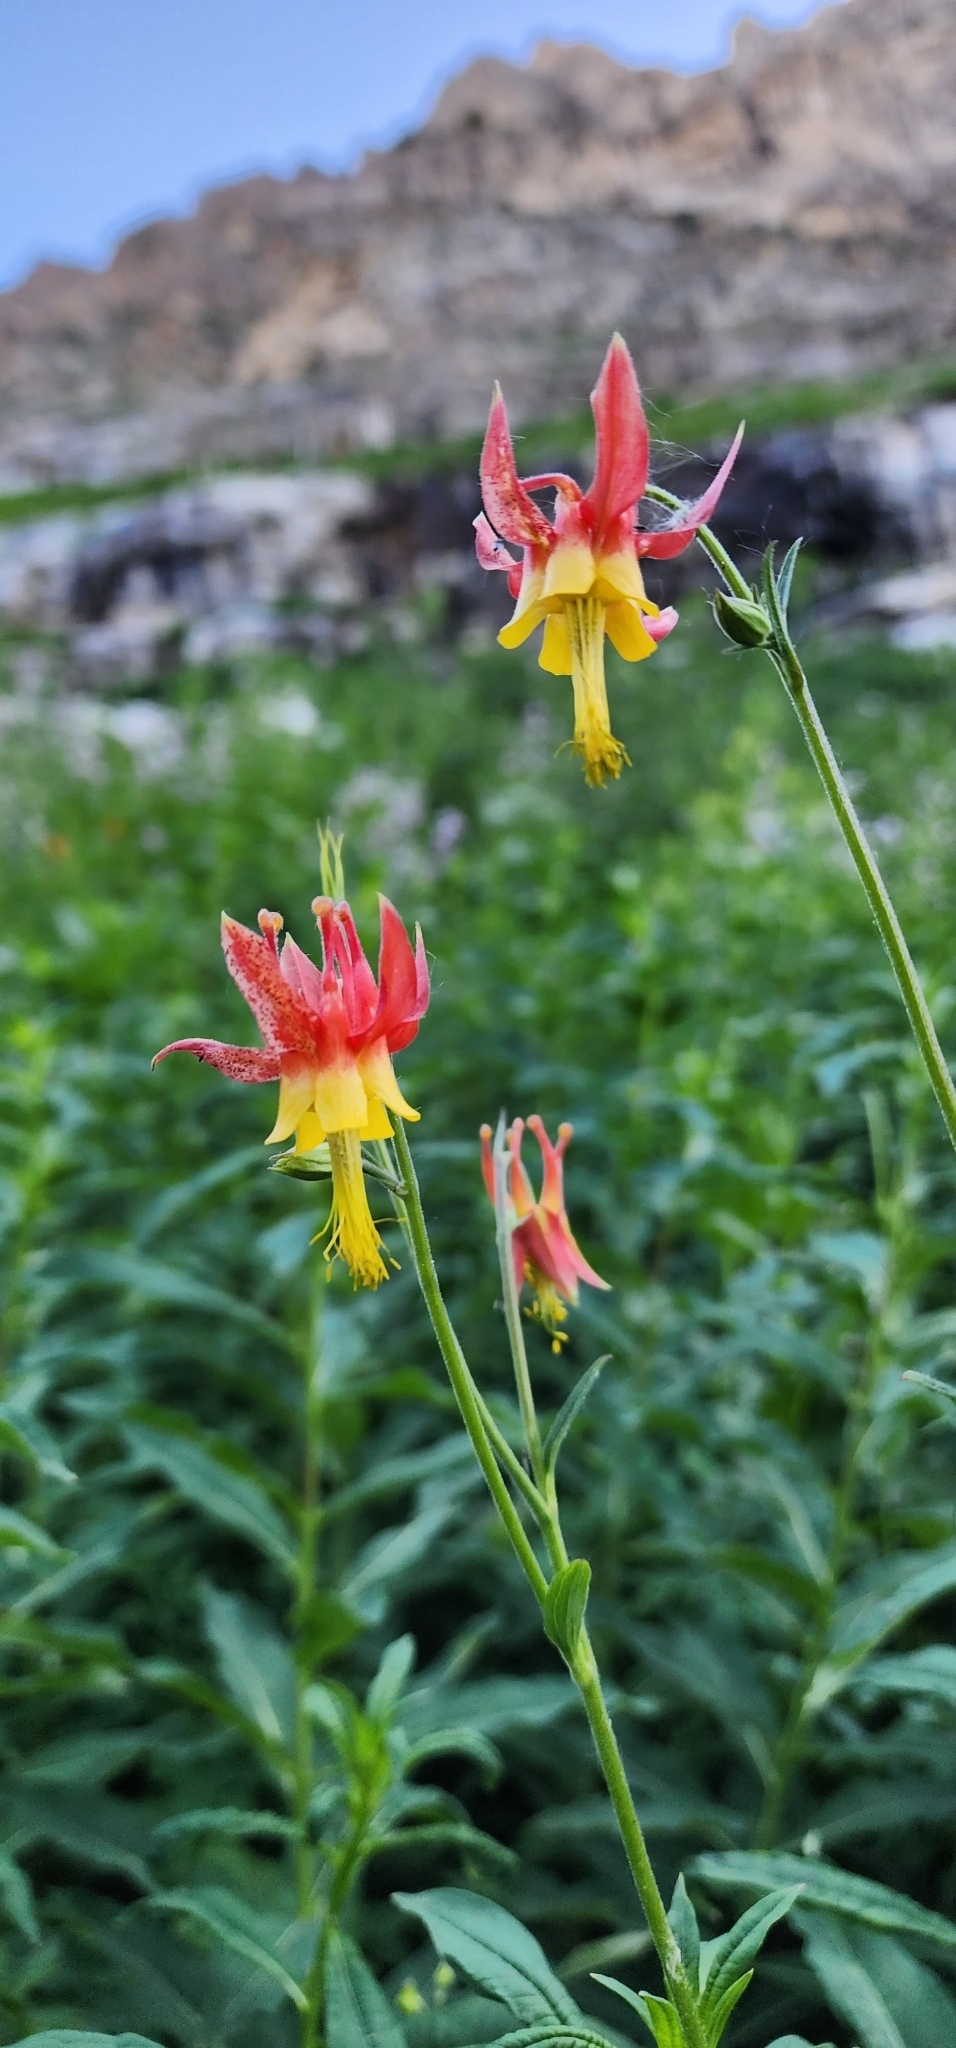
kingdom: Plantae
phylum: Tracheophyta
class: Magnoliopsida
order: Ranunculales
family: Ranunculaceae
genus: Aquilegia
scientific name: Aquilegia formosa
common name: Sitka columbine
